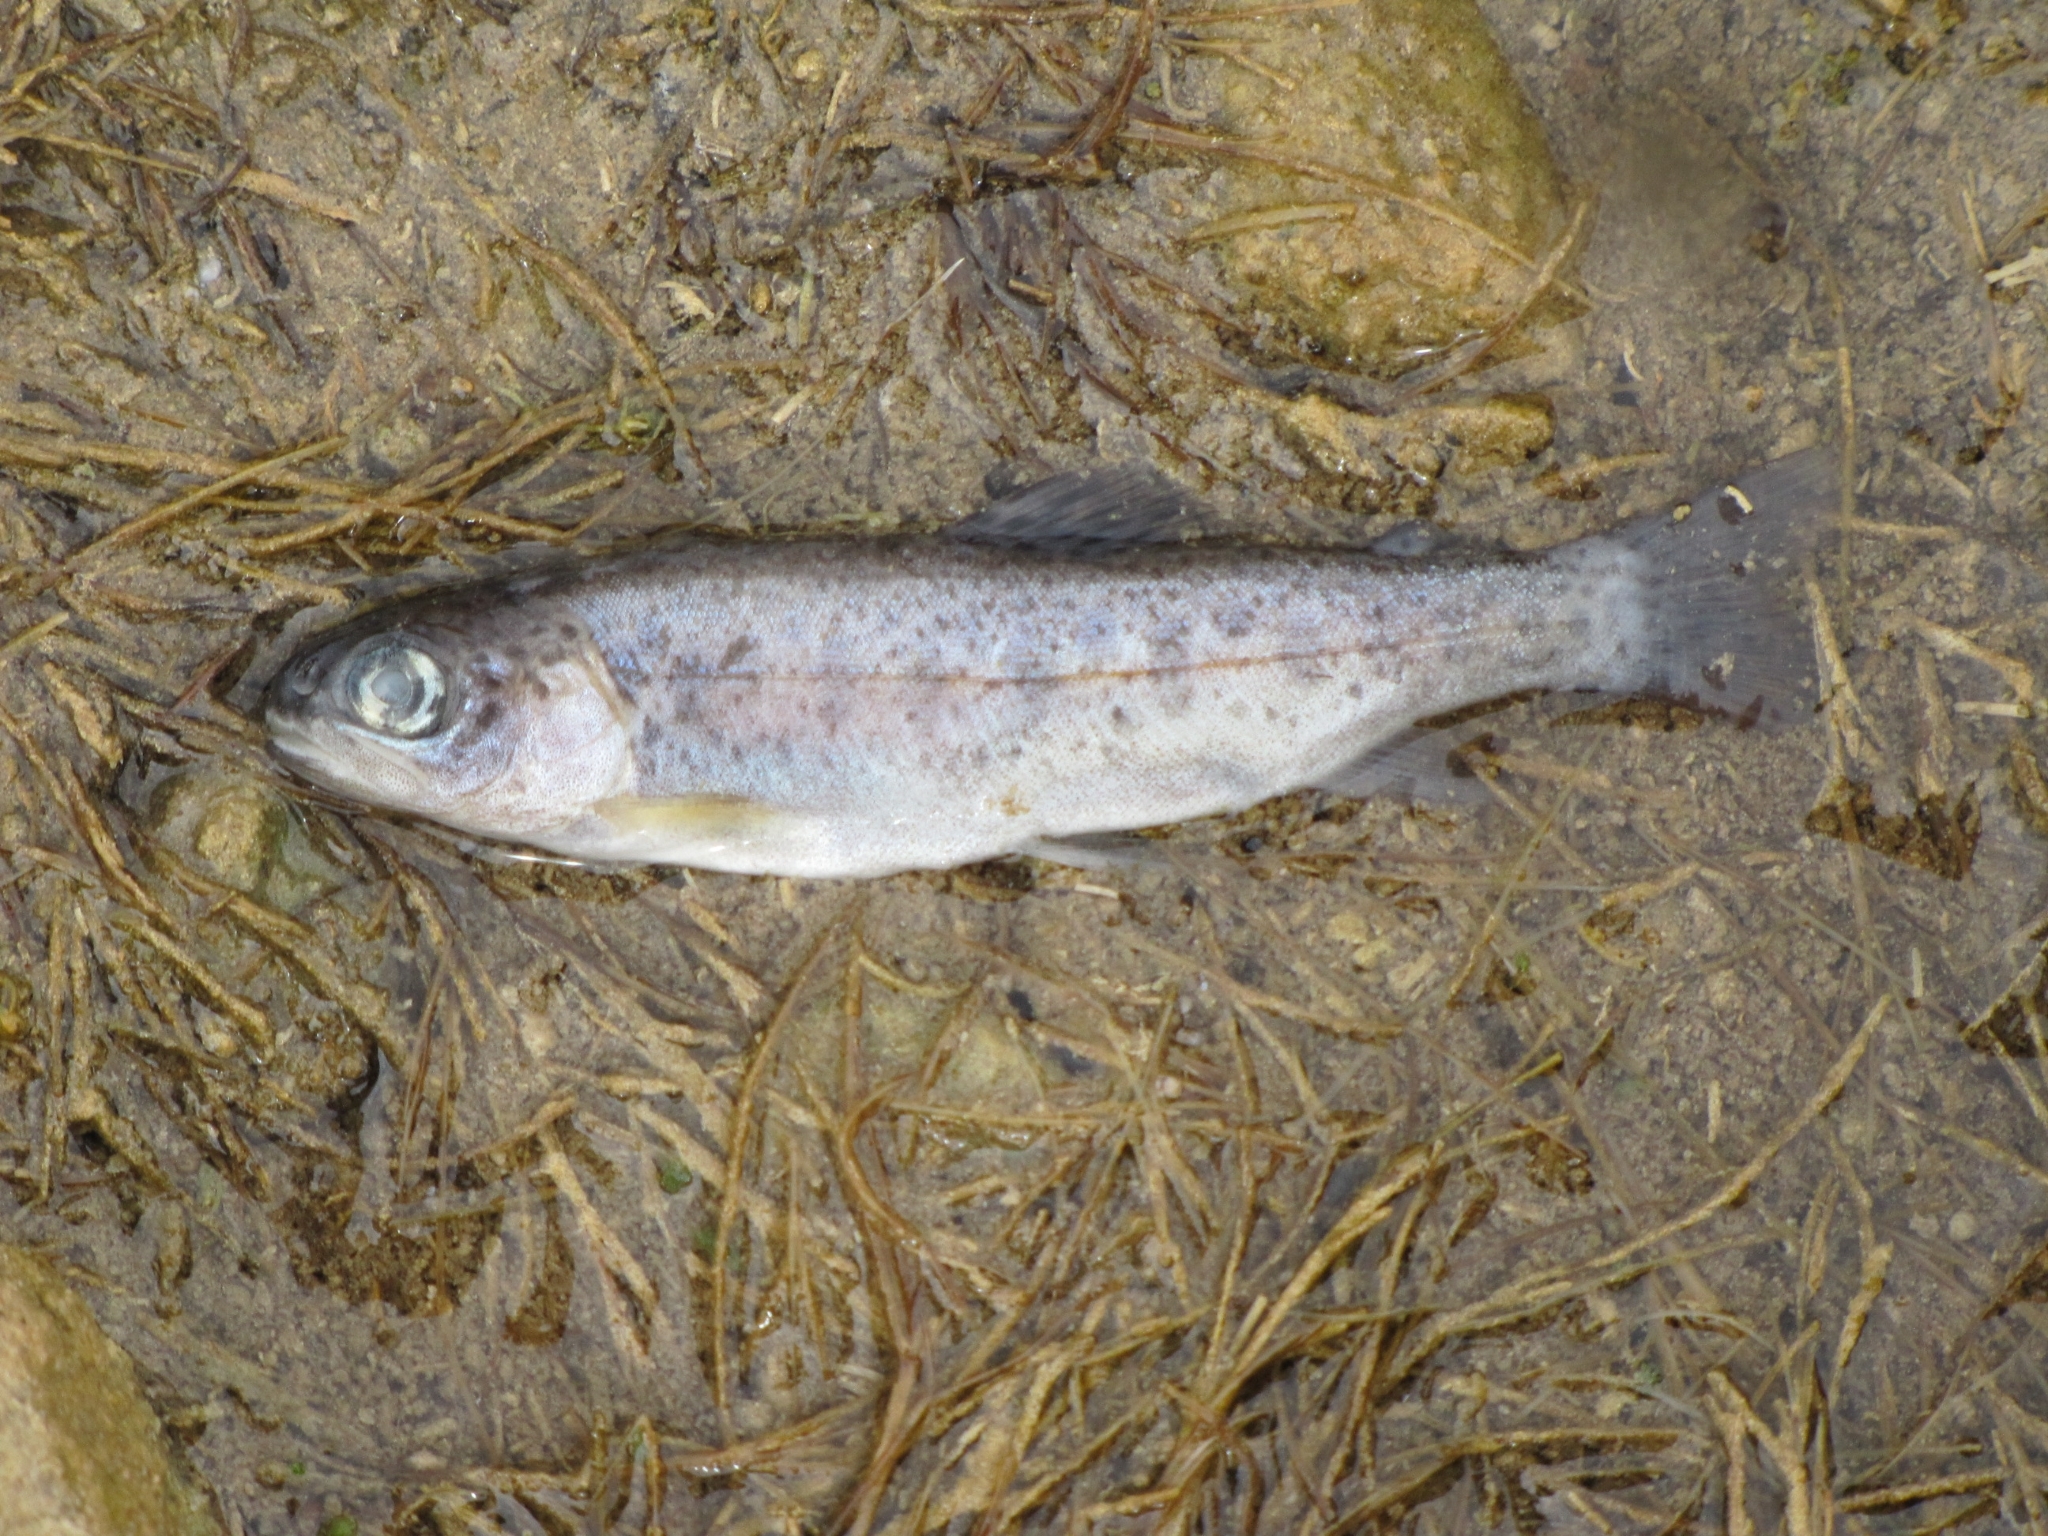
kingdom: Animalia
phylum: Chordata
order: Salmoniformes
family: Salmonidae
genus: Oncorhynchus
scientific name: Oncorhynchus mykiss
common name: Rainbow trout
